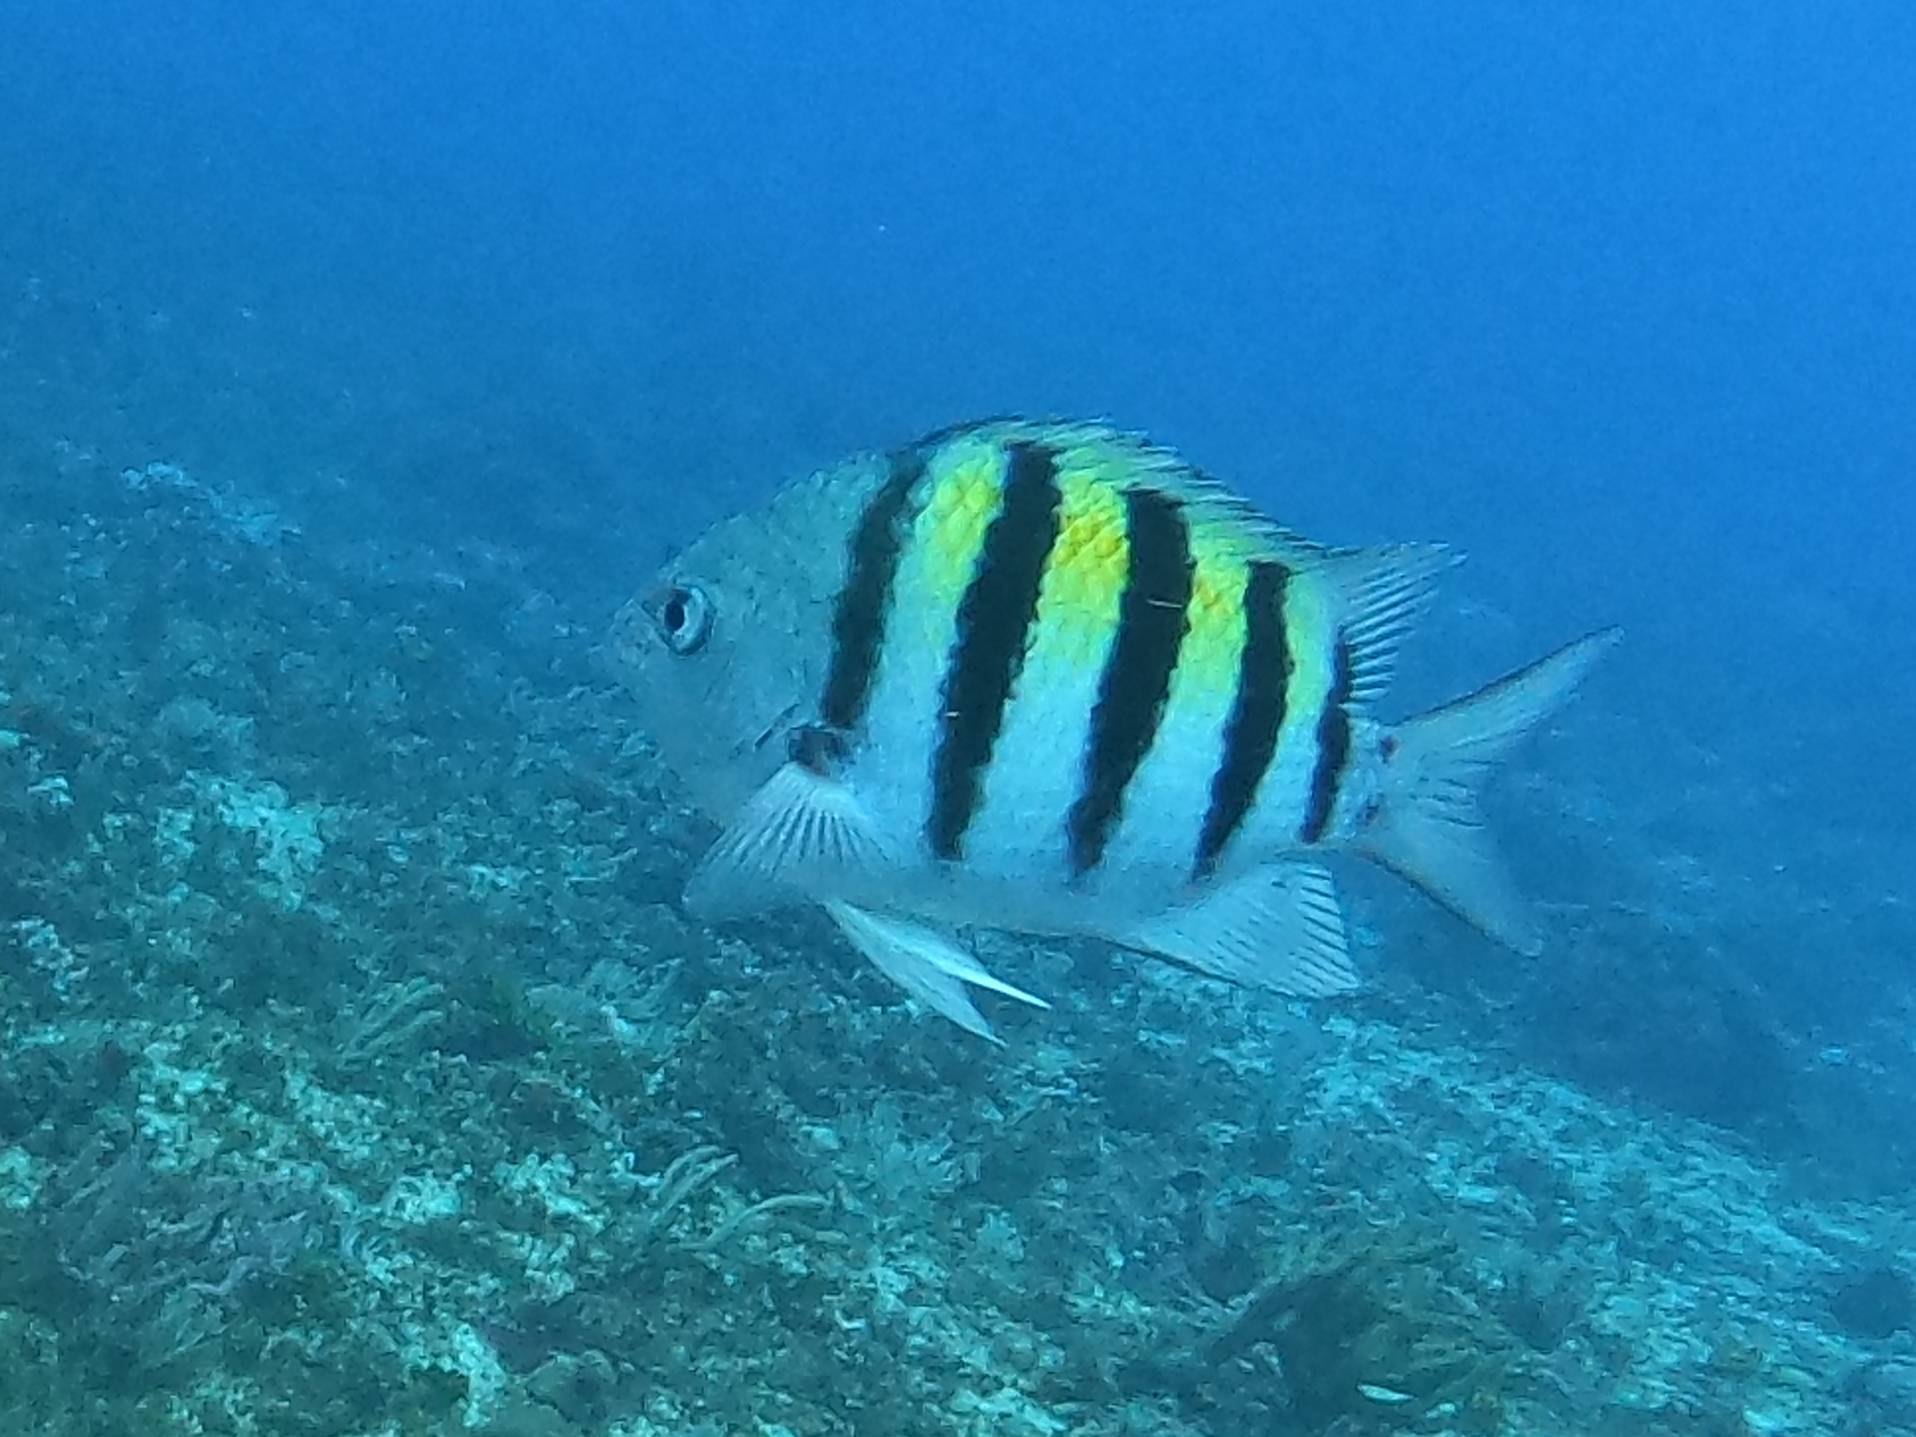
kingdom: Animalia
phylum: Chordata
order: Perciformes
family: Pomacentridae
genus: Abudefduf
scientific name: Abudefduf saxatilis
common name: Sergeant major
